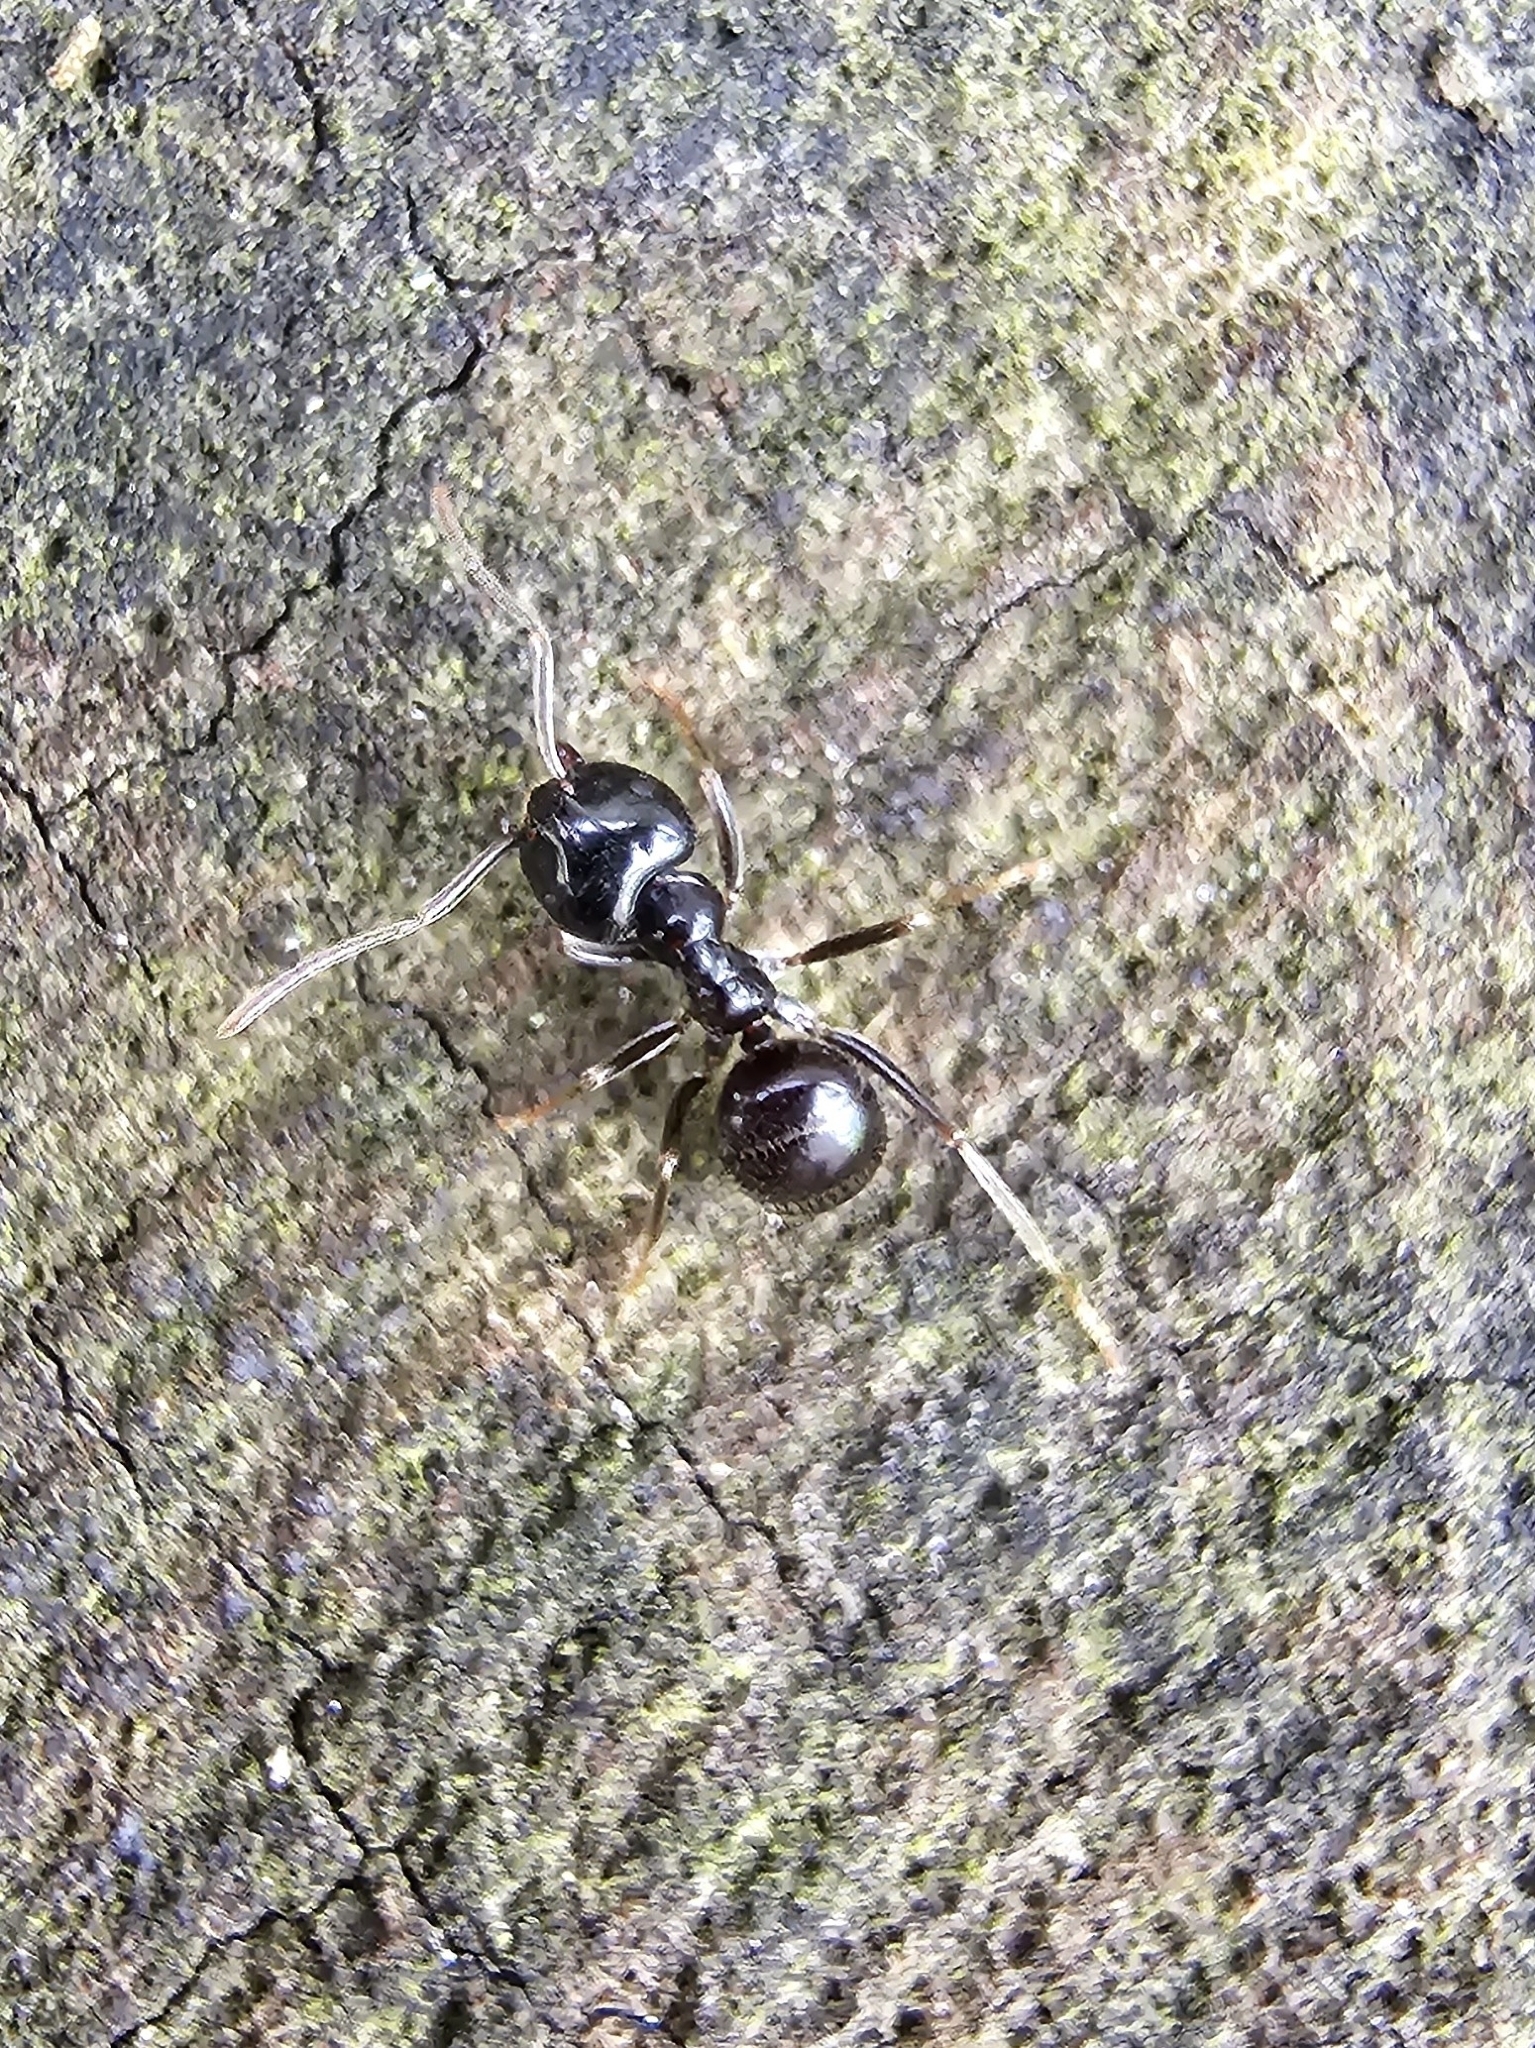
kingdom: Animalia
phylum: Arthropoda
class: Insecta
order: Hymenoptera
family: Formicidae
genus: Lasius
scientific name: Lasius fuliginosus
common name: Jet ant
